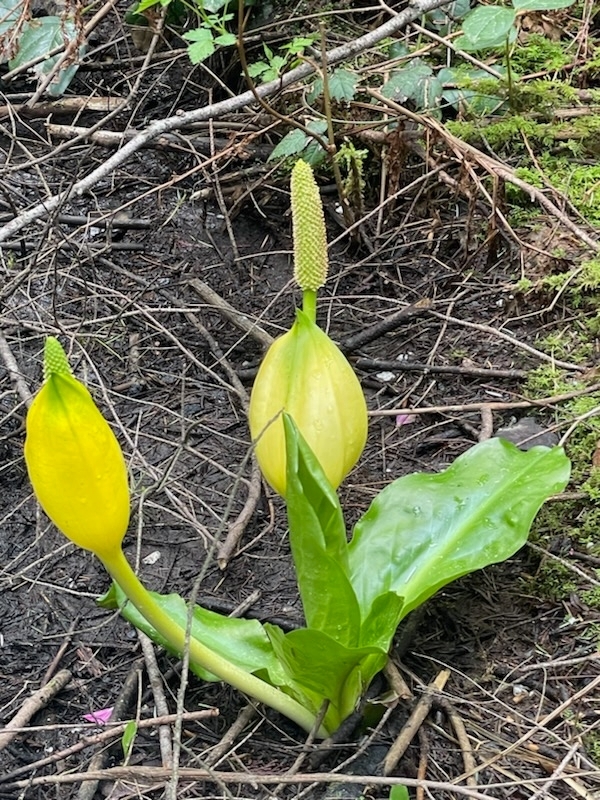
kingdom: Plantae
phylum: Tracheophyta
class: Liliopsida
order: Alismatales
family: Araceae
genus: Lysichiton
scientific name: Lysichiton americanus
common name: American skunk cabbage
